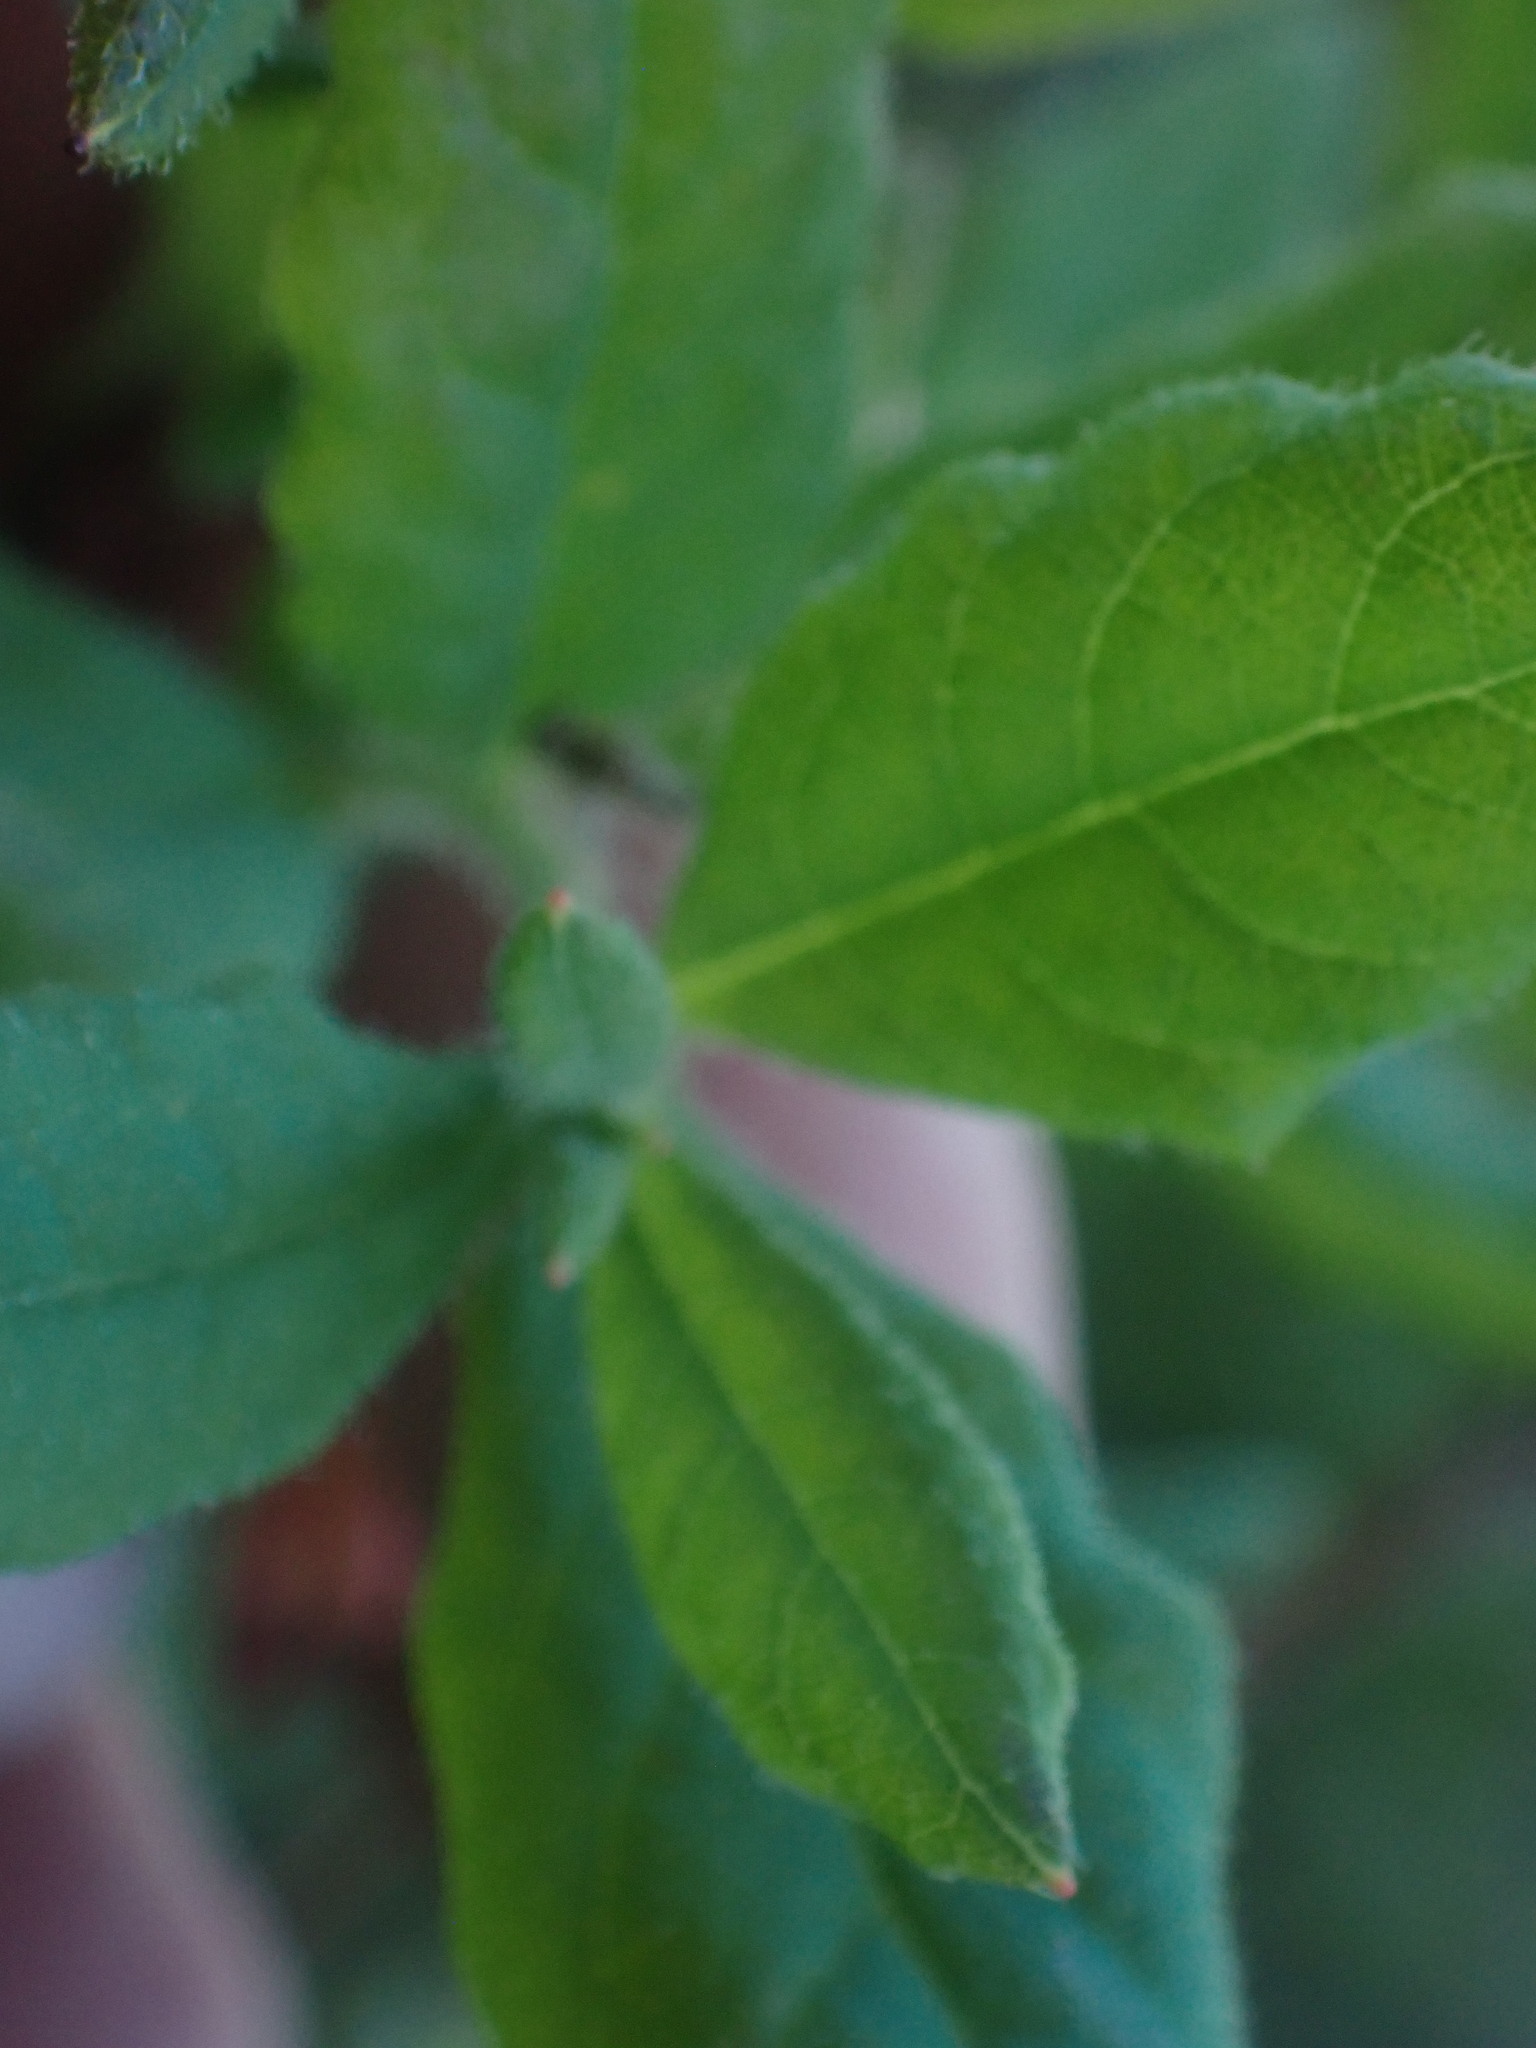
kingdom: Plantae
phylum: Tracheophyta
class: Magnoliopsida
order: Ericales
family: Ericaceae
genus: Rhododendron
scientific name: Rhododendron menziesii
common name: Pacific menziesia
